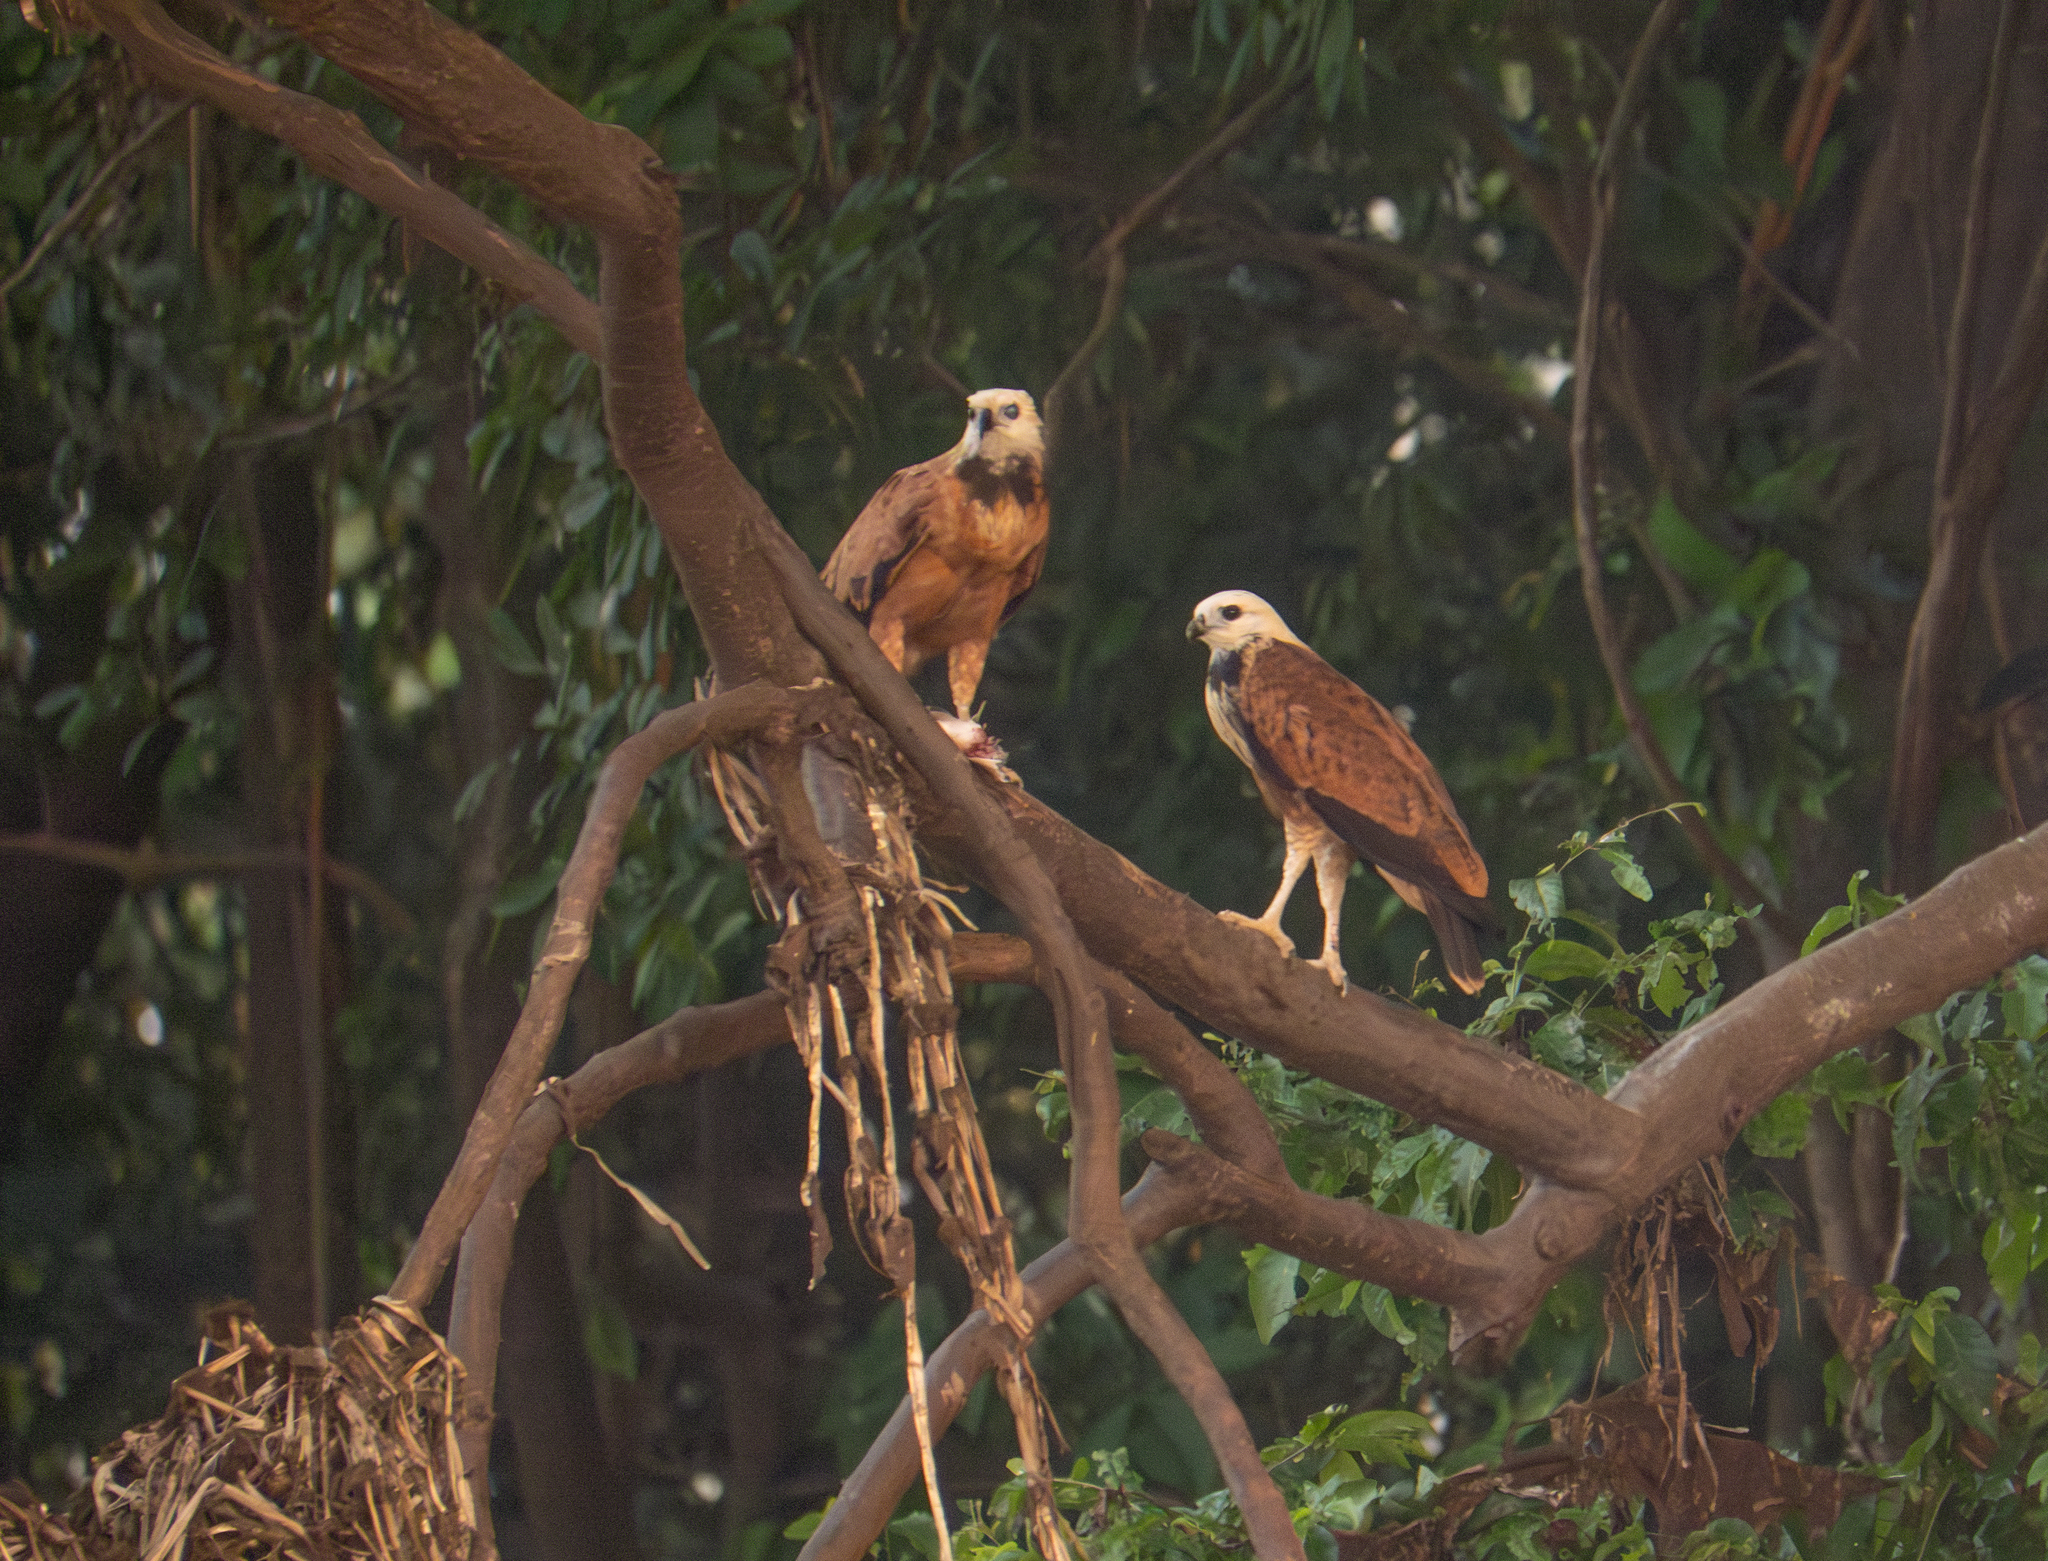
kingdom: Animalia
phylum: Chordata
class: Aves
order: Accipitriformes
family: Accipitridae
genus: Busarellus
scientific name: Busarellus nigricollis
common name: Black-collared hawk
